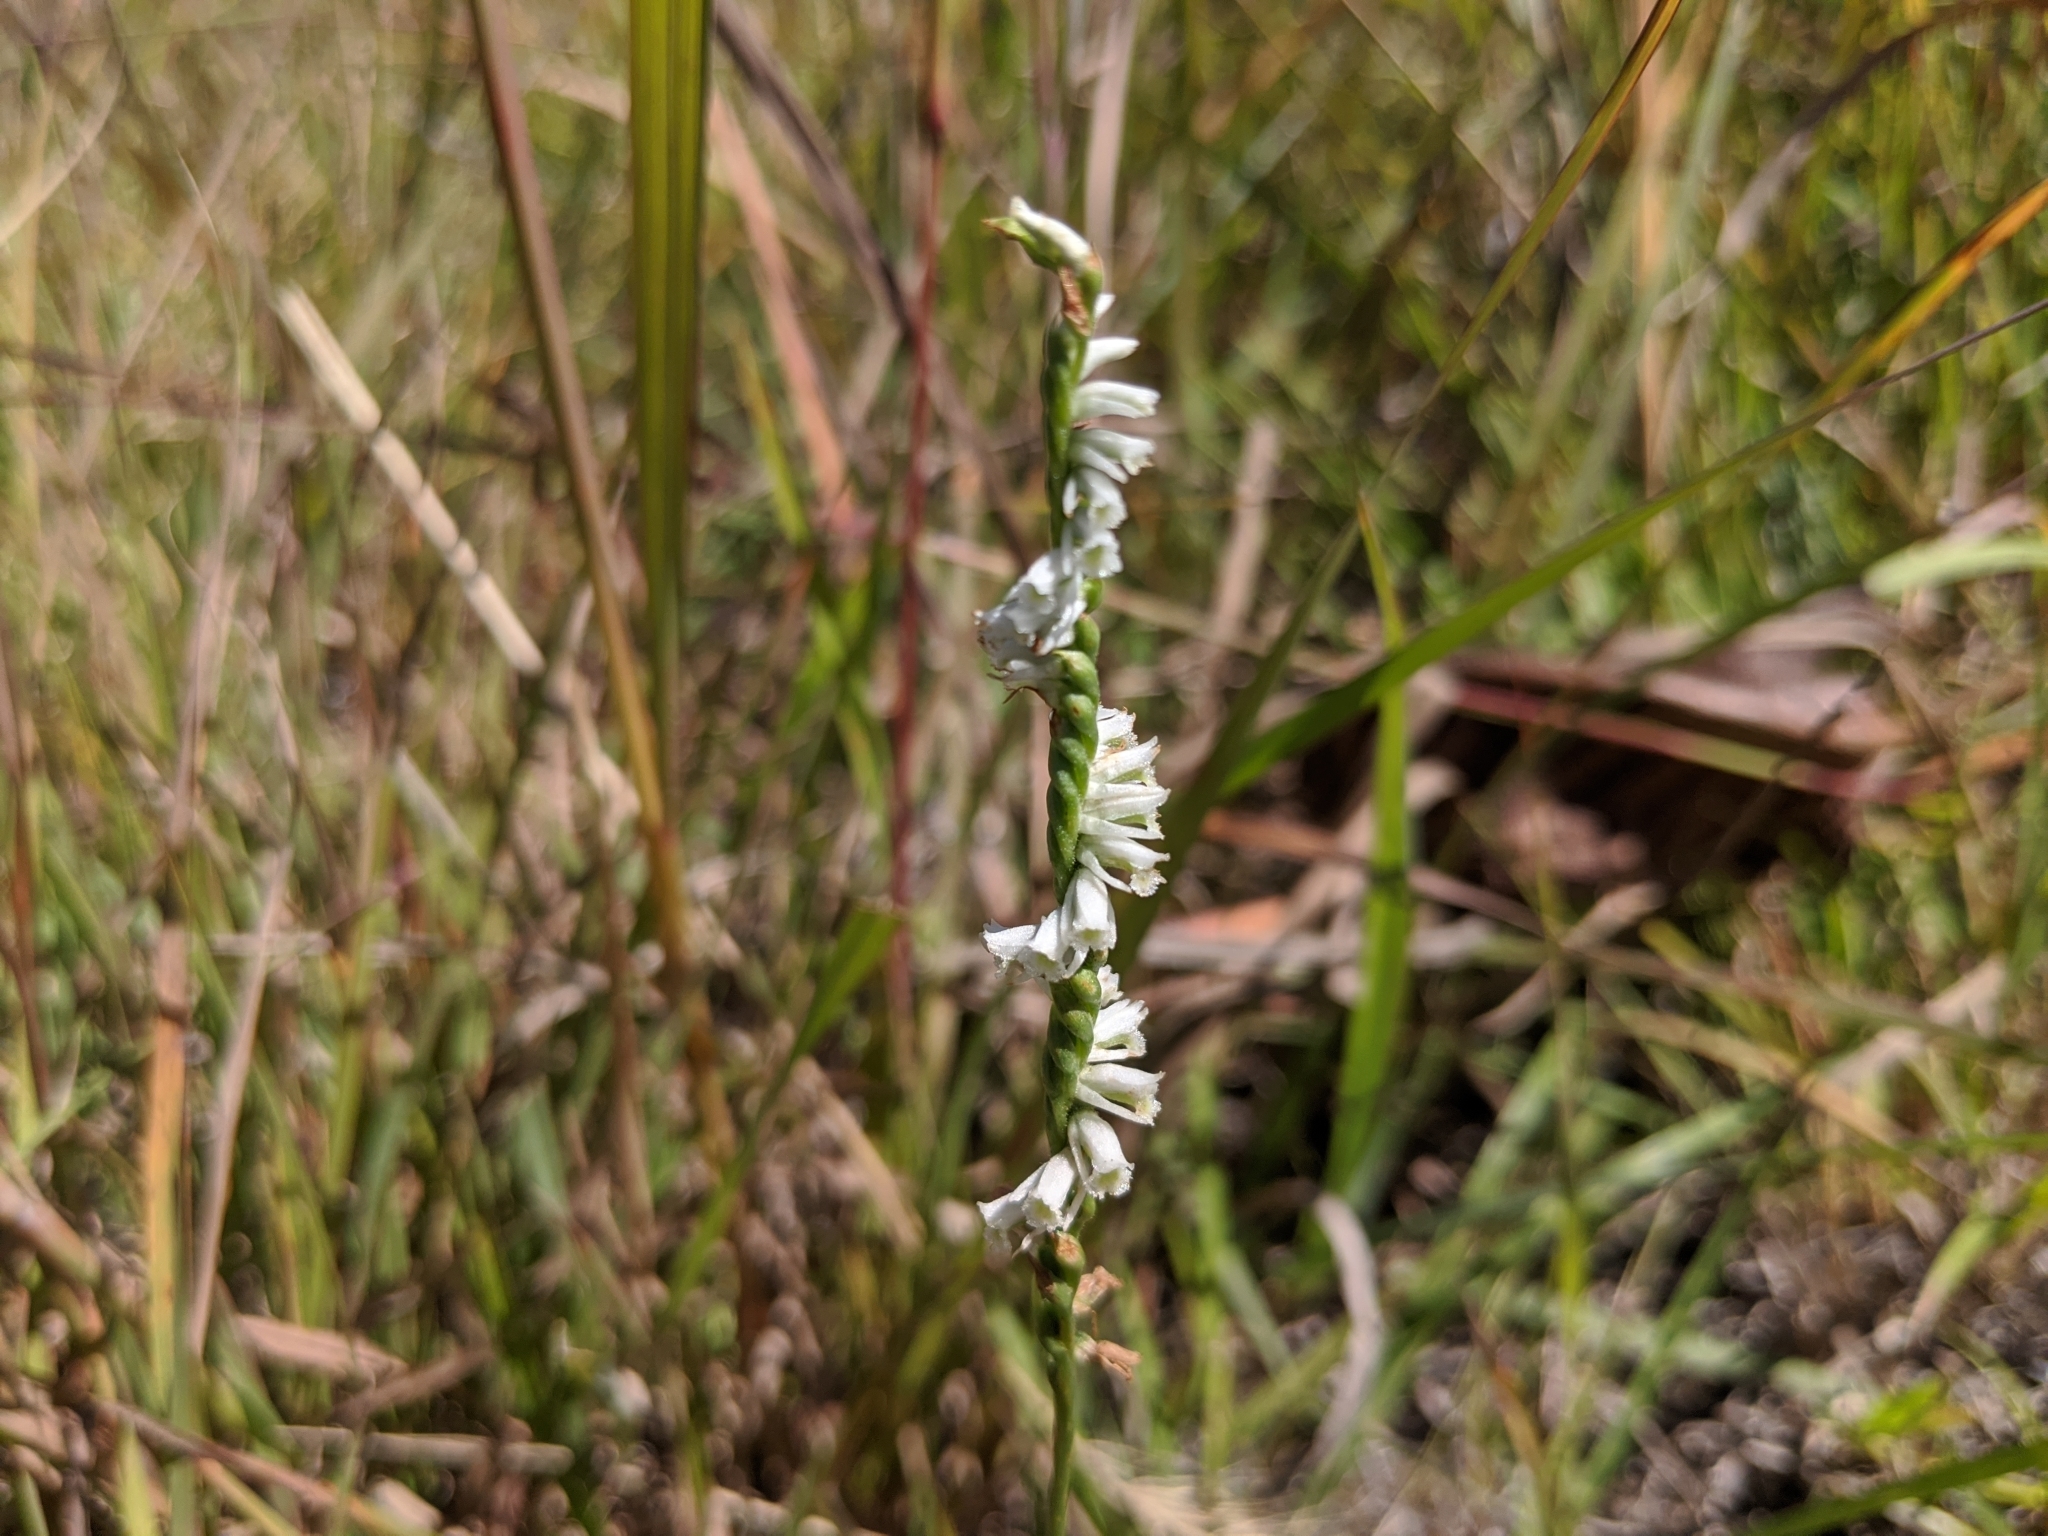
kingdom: Plantae
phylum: Tracheophyta
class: Liliopsida
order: Asparagales
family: Orchidaceae
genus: Spiranthes
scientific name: Spiranthes lacera
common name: Northern slender ladies'-tresses
